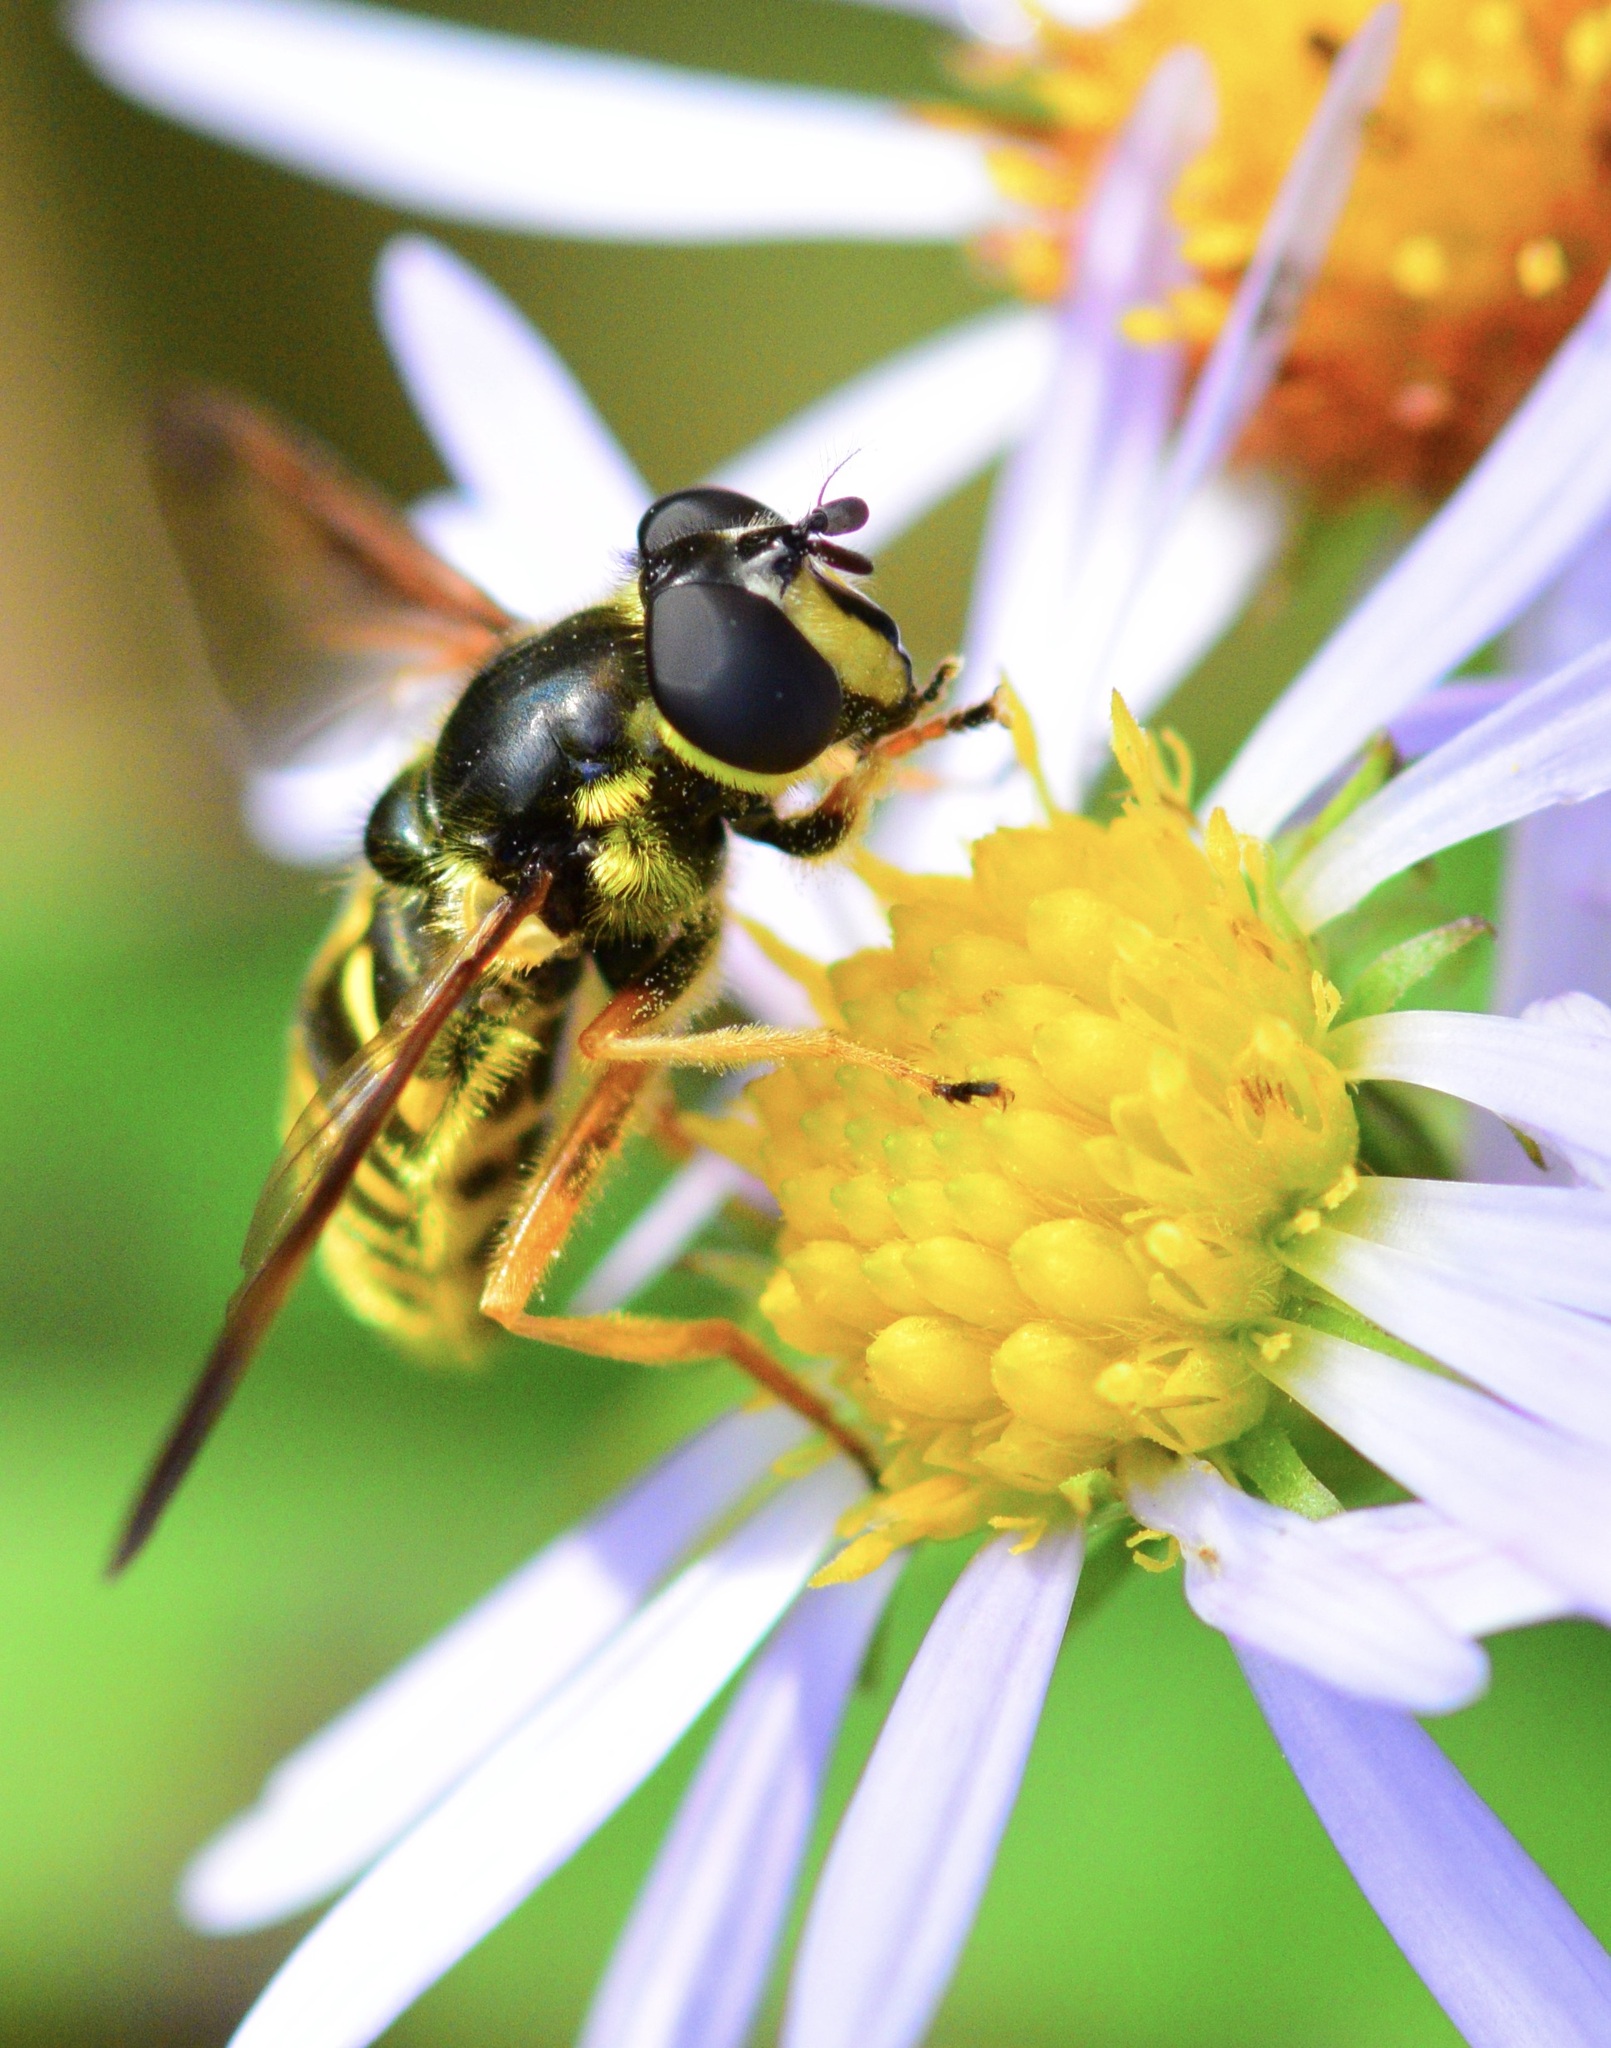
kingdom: Animalia
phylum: Arthropoda
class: Insecta
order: Diptera
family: Syrphidae
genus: Sericomyia
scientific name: Sericomyia chrysotoxoides
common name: Oblique-banded pond fly
